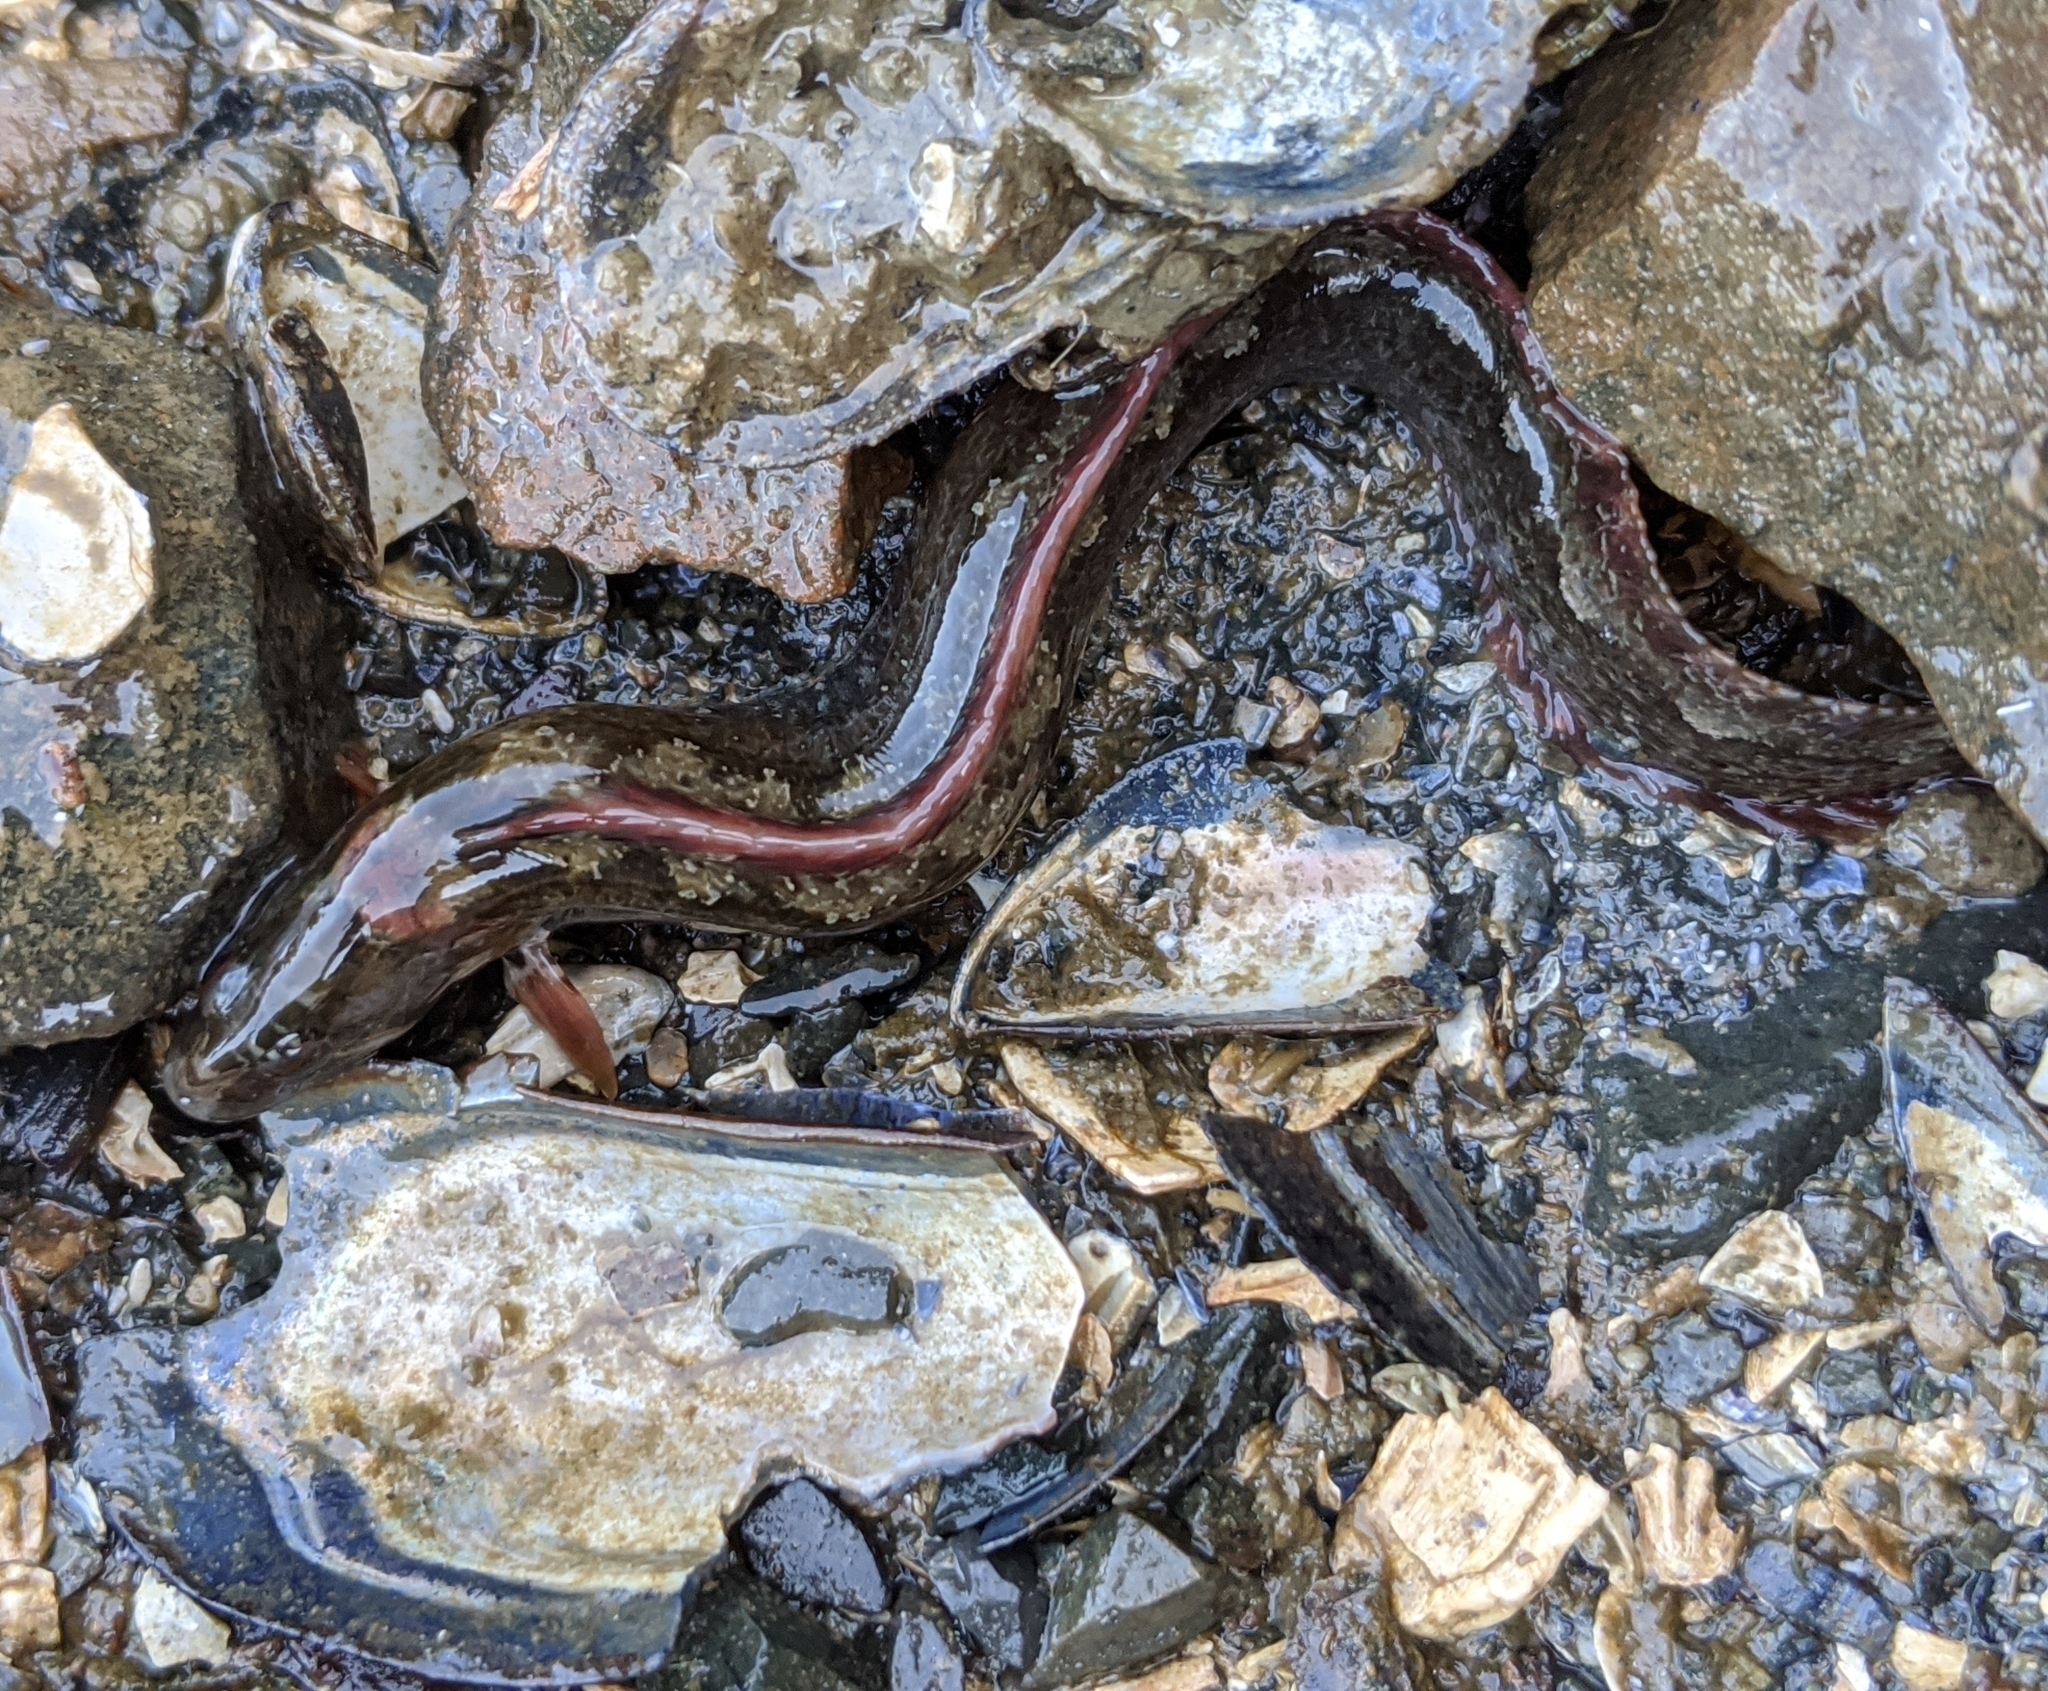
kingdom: Animalia
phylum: Chordata
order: Perciformes
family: Stichaeidae
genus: Anoplarchus
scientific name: Anoplarchus purpurescens
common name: High cockscomb
